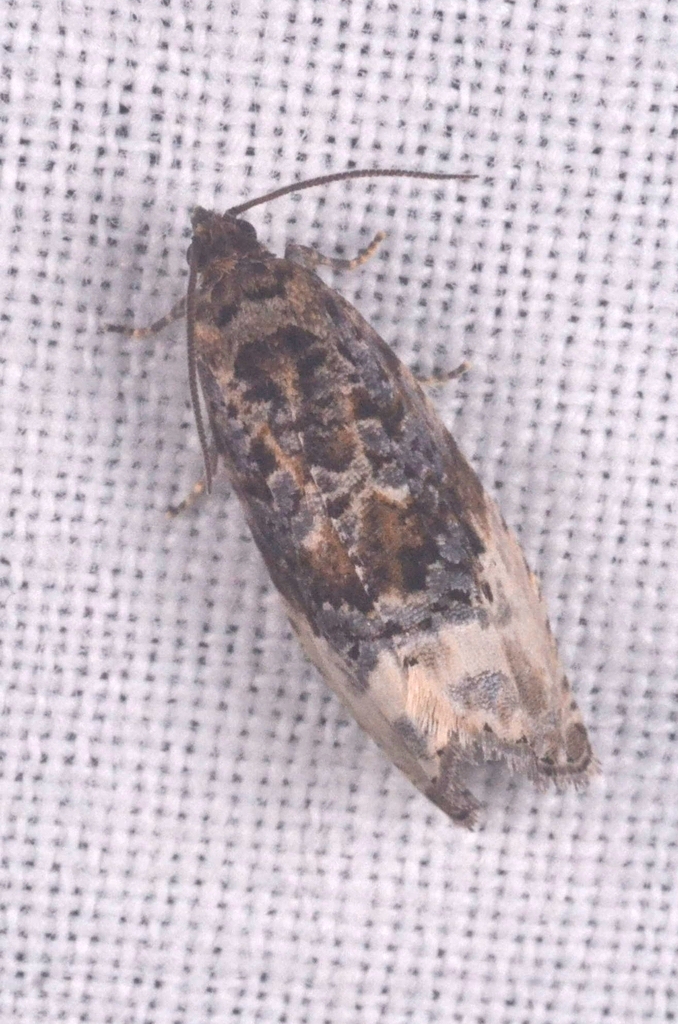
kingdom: Animalia
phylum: Arthropoda
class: Insecta
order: Lepidoptera
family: Tortricidae
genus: Hedya
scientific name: Hedya nubiferana
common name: Marbled orchard tortrix
